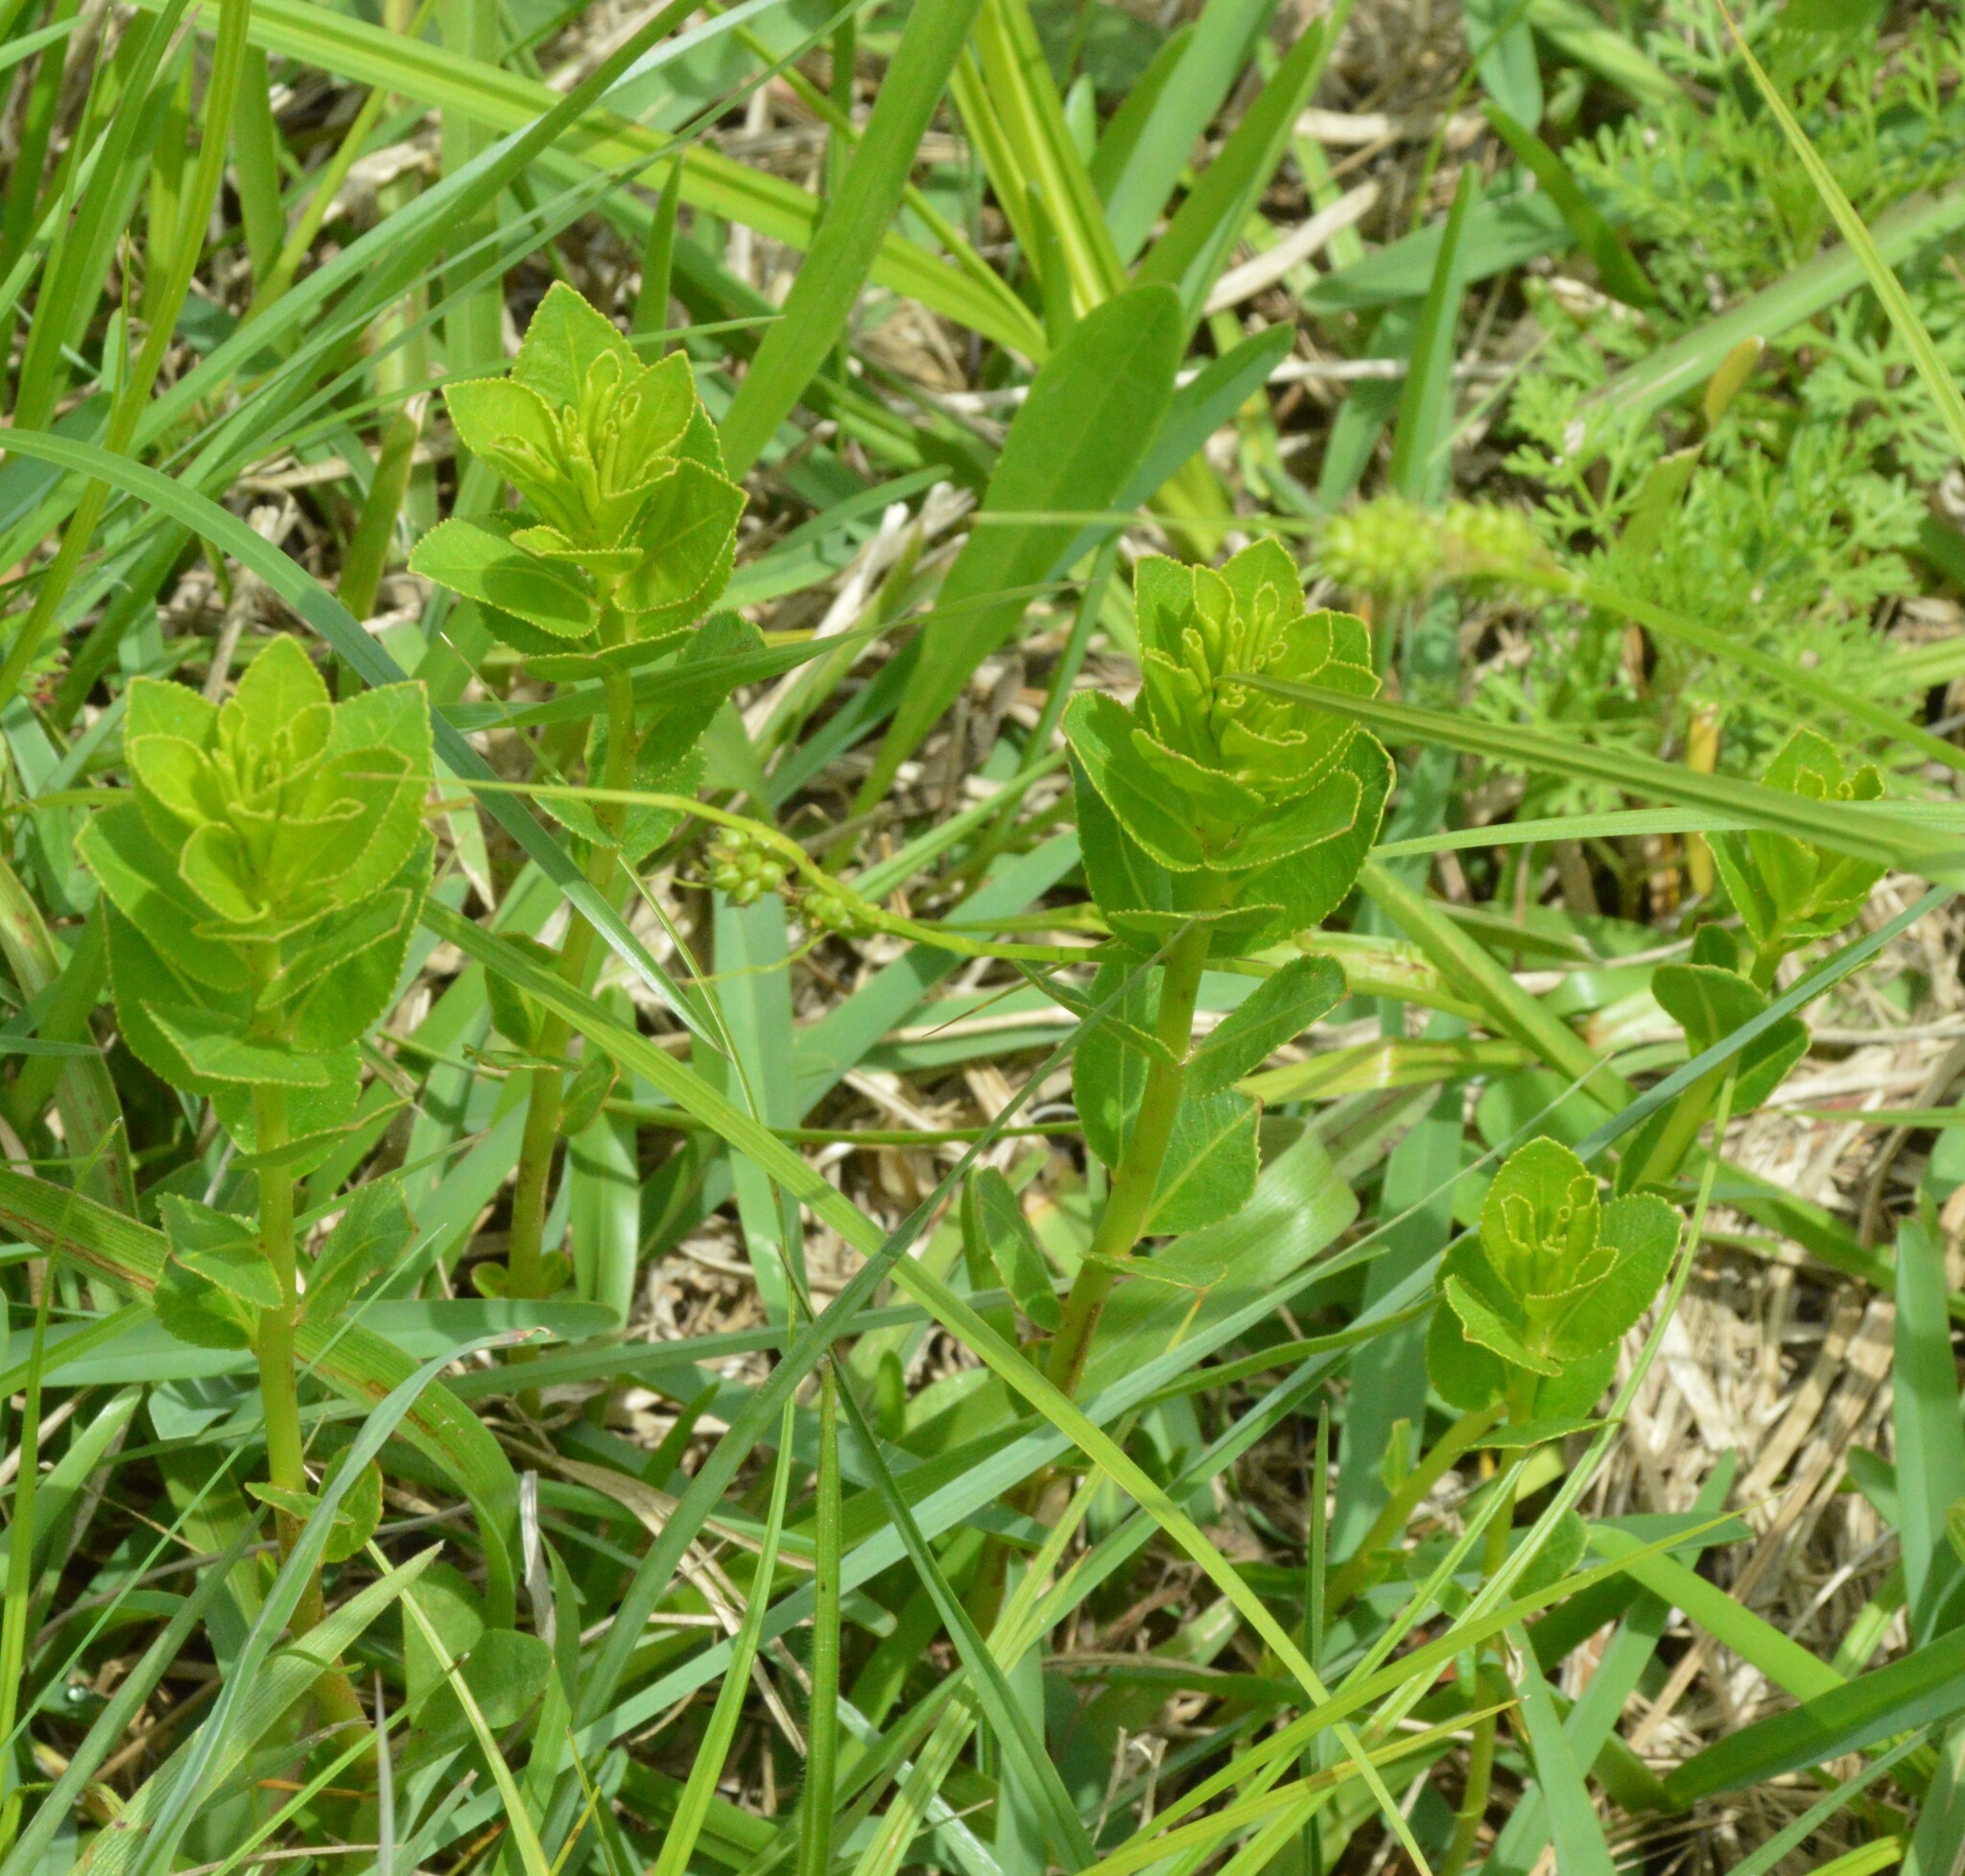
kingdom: Plantae
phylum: Tracheophyta
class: Magnoliopsida
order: Malpighiales
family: Euphorbiaceae
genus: Stillingia
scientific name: Stillingia sylvatica
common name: Queen's-delight
